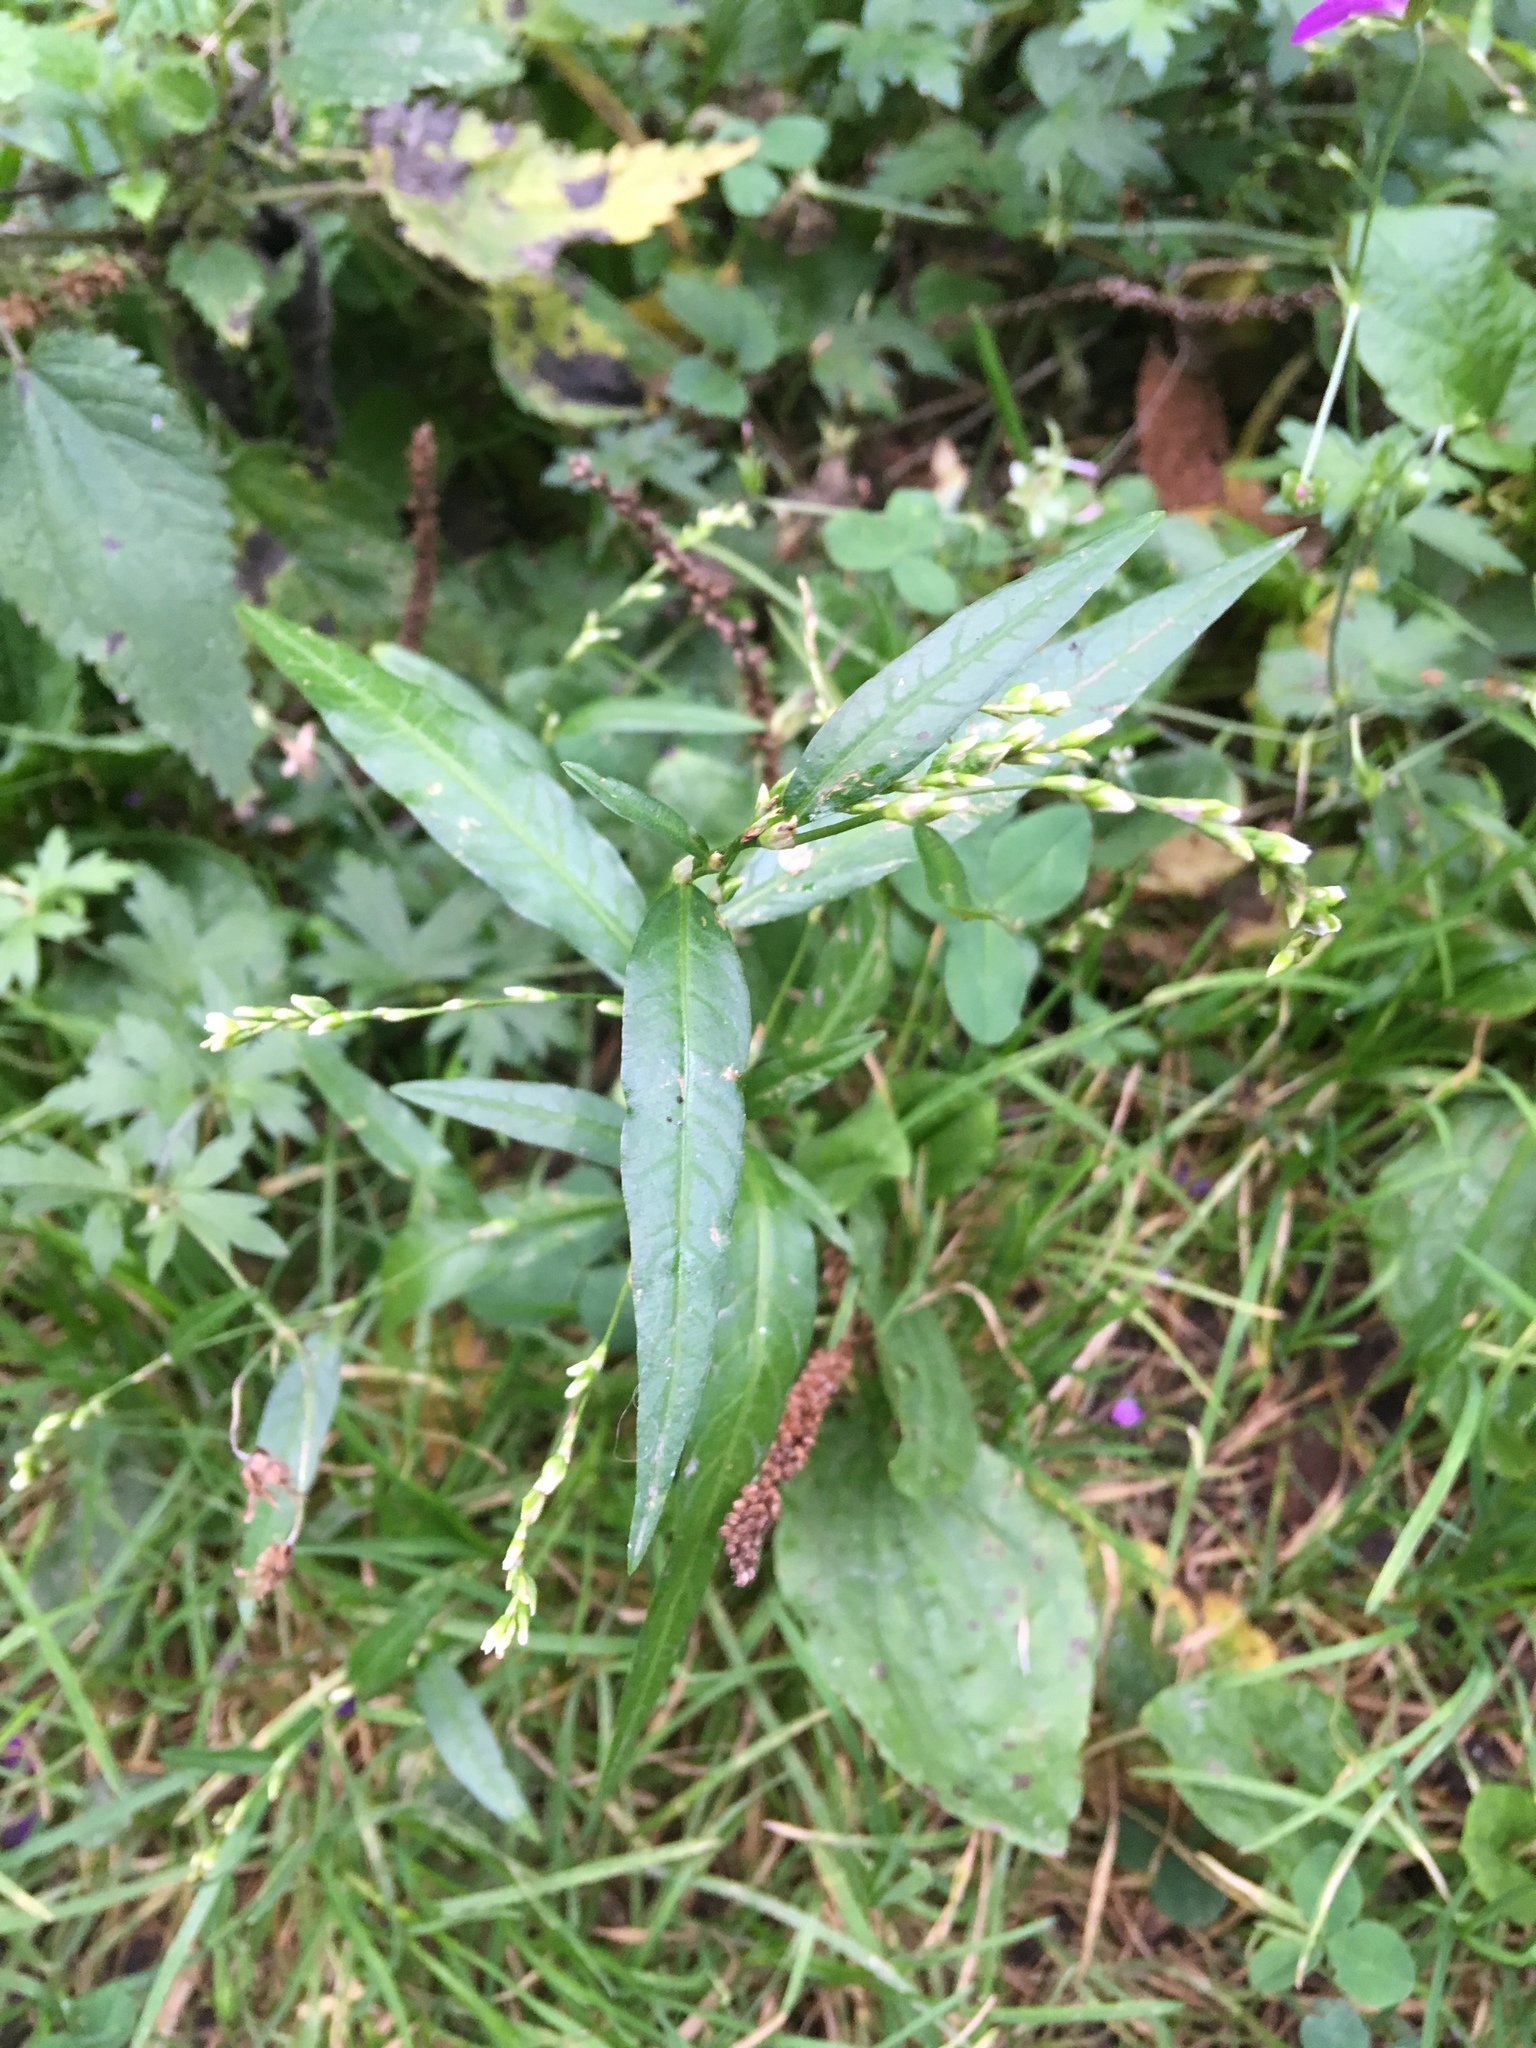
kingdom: Plantae
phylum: Tracheophyta
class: Magnoliopsida
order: Caryophyllales
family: Polygonaceae
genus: Persicaria
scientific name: Persicaria hydropiper
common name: Water-pepper
